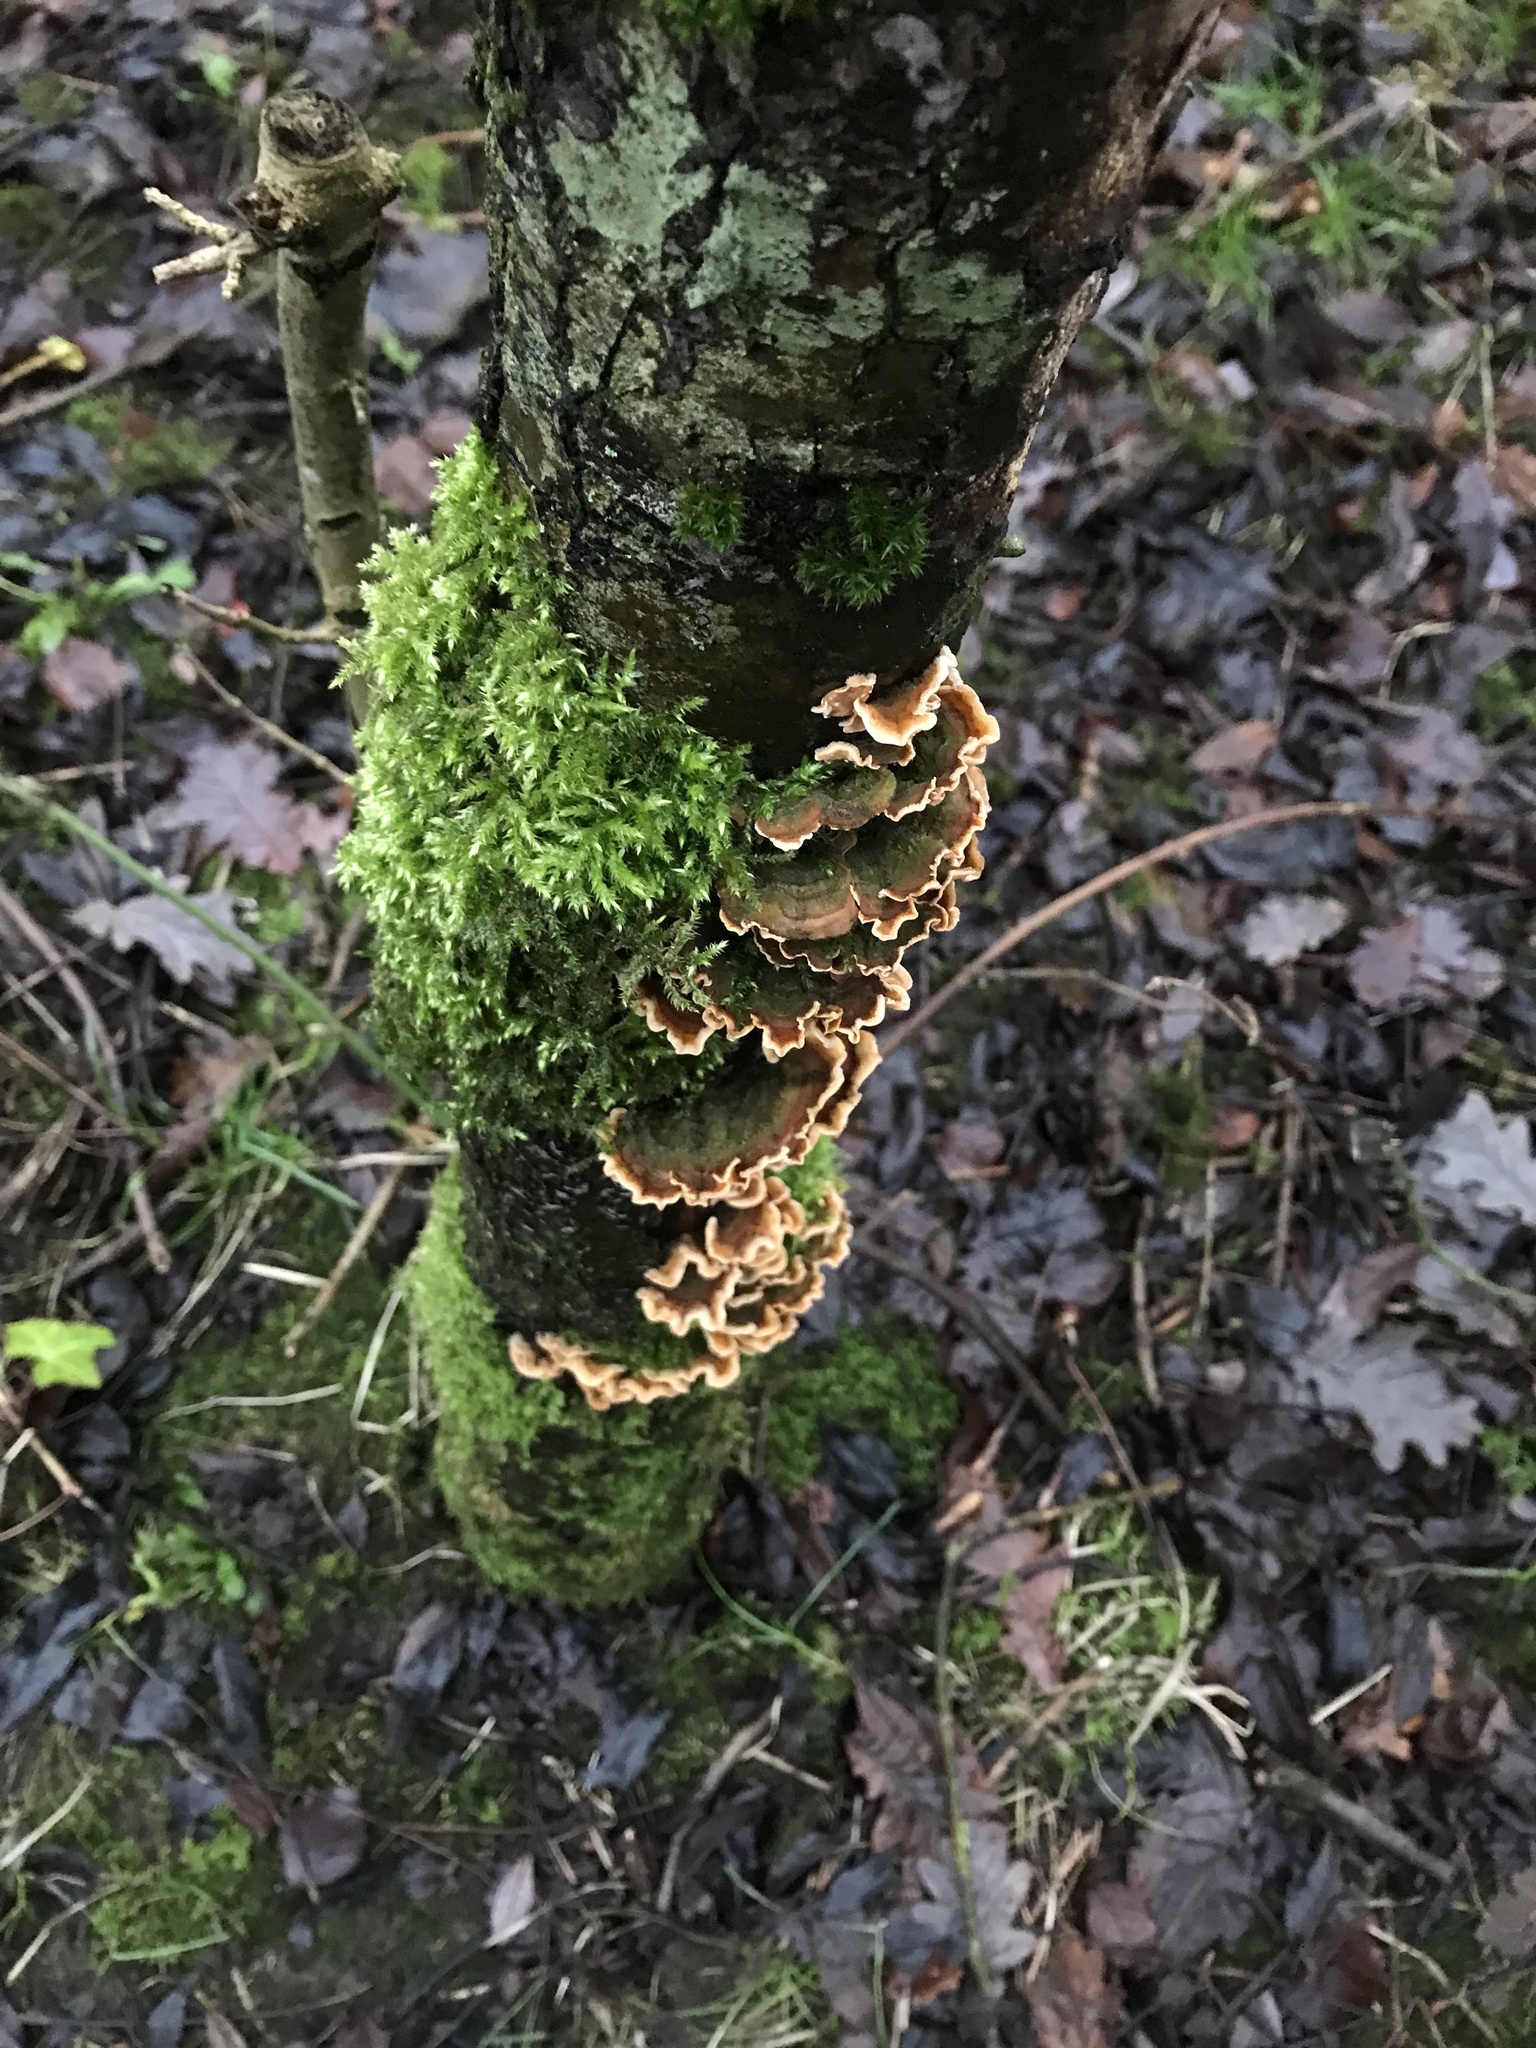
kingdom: Fungi
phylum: Basidiomycota
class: Agaricomycetes
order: Russulales
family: Stereaceae
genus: Stereum
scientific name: Stereum hirsutum
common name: Hairy curtain crust
